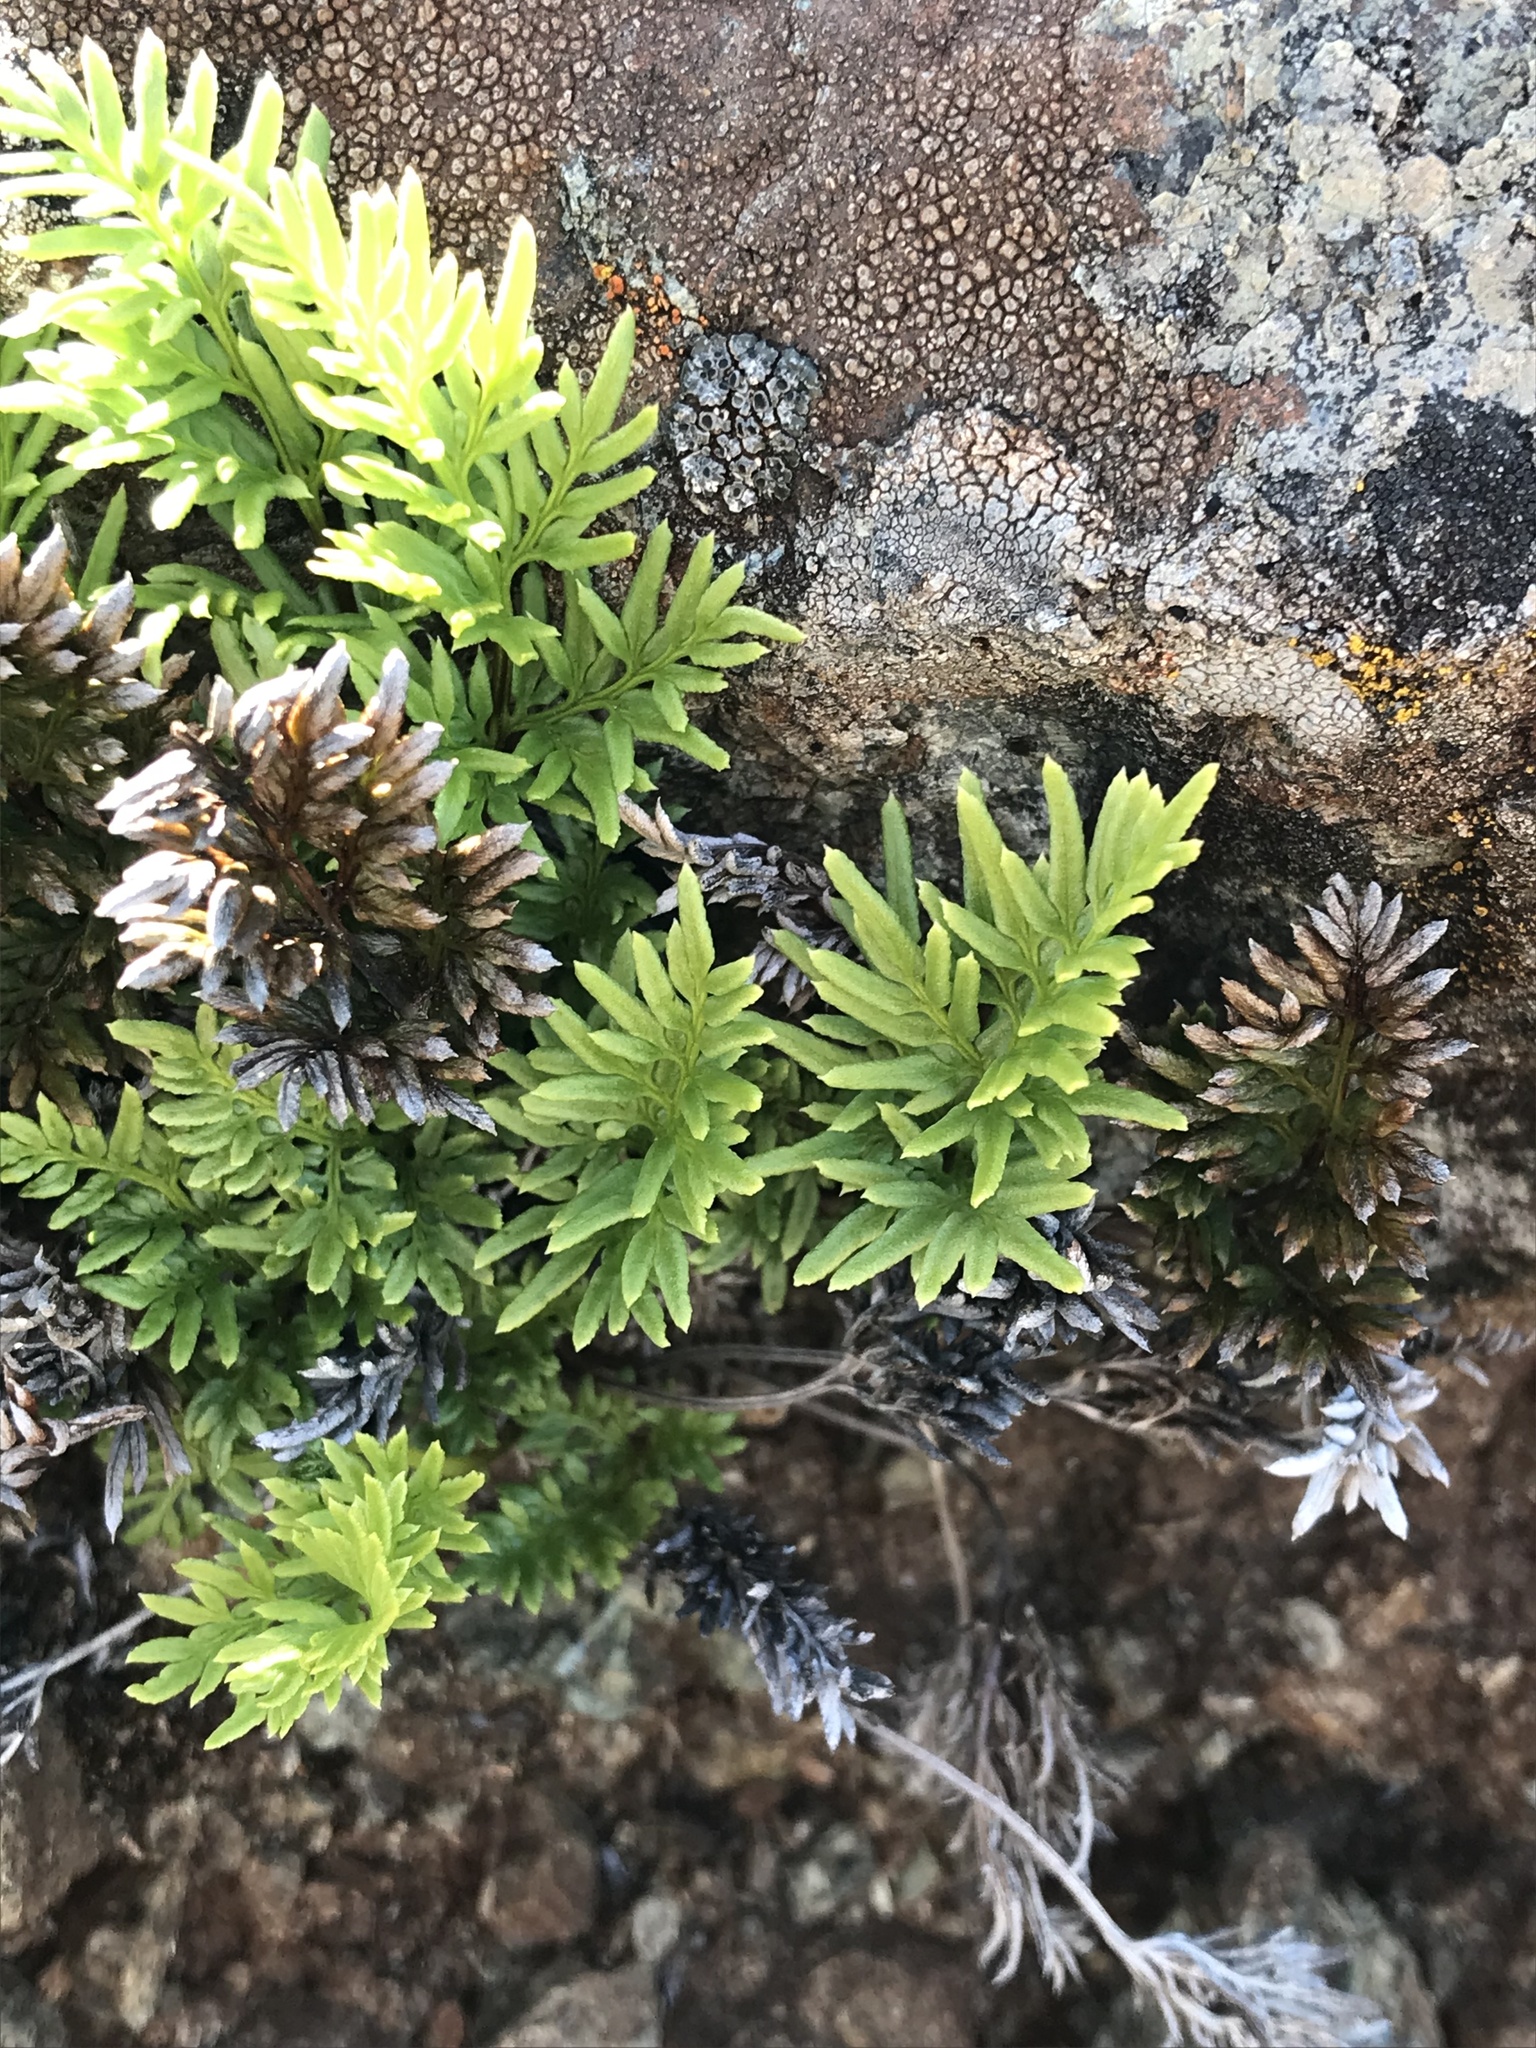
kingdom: Plantae
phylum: Tracheophyta
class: Polypodiopsida
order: Polypodiales
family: Pteridaceae
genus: Aspidotis
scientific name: Aspidotis densa
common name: Indian's dream
